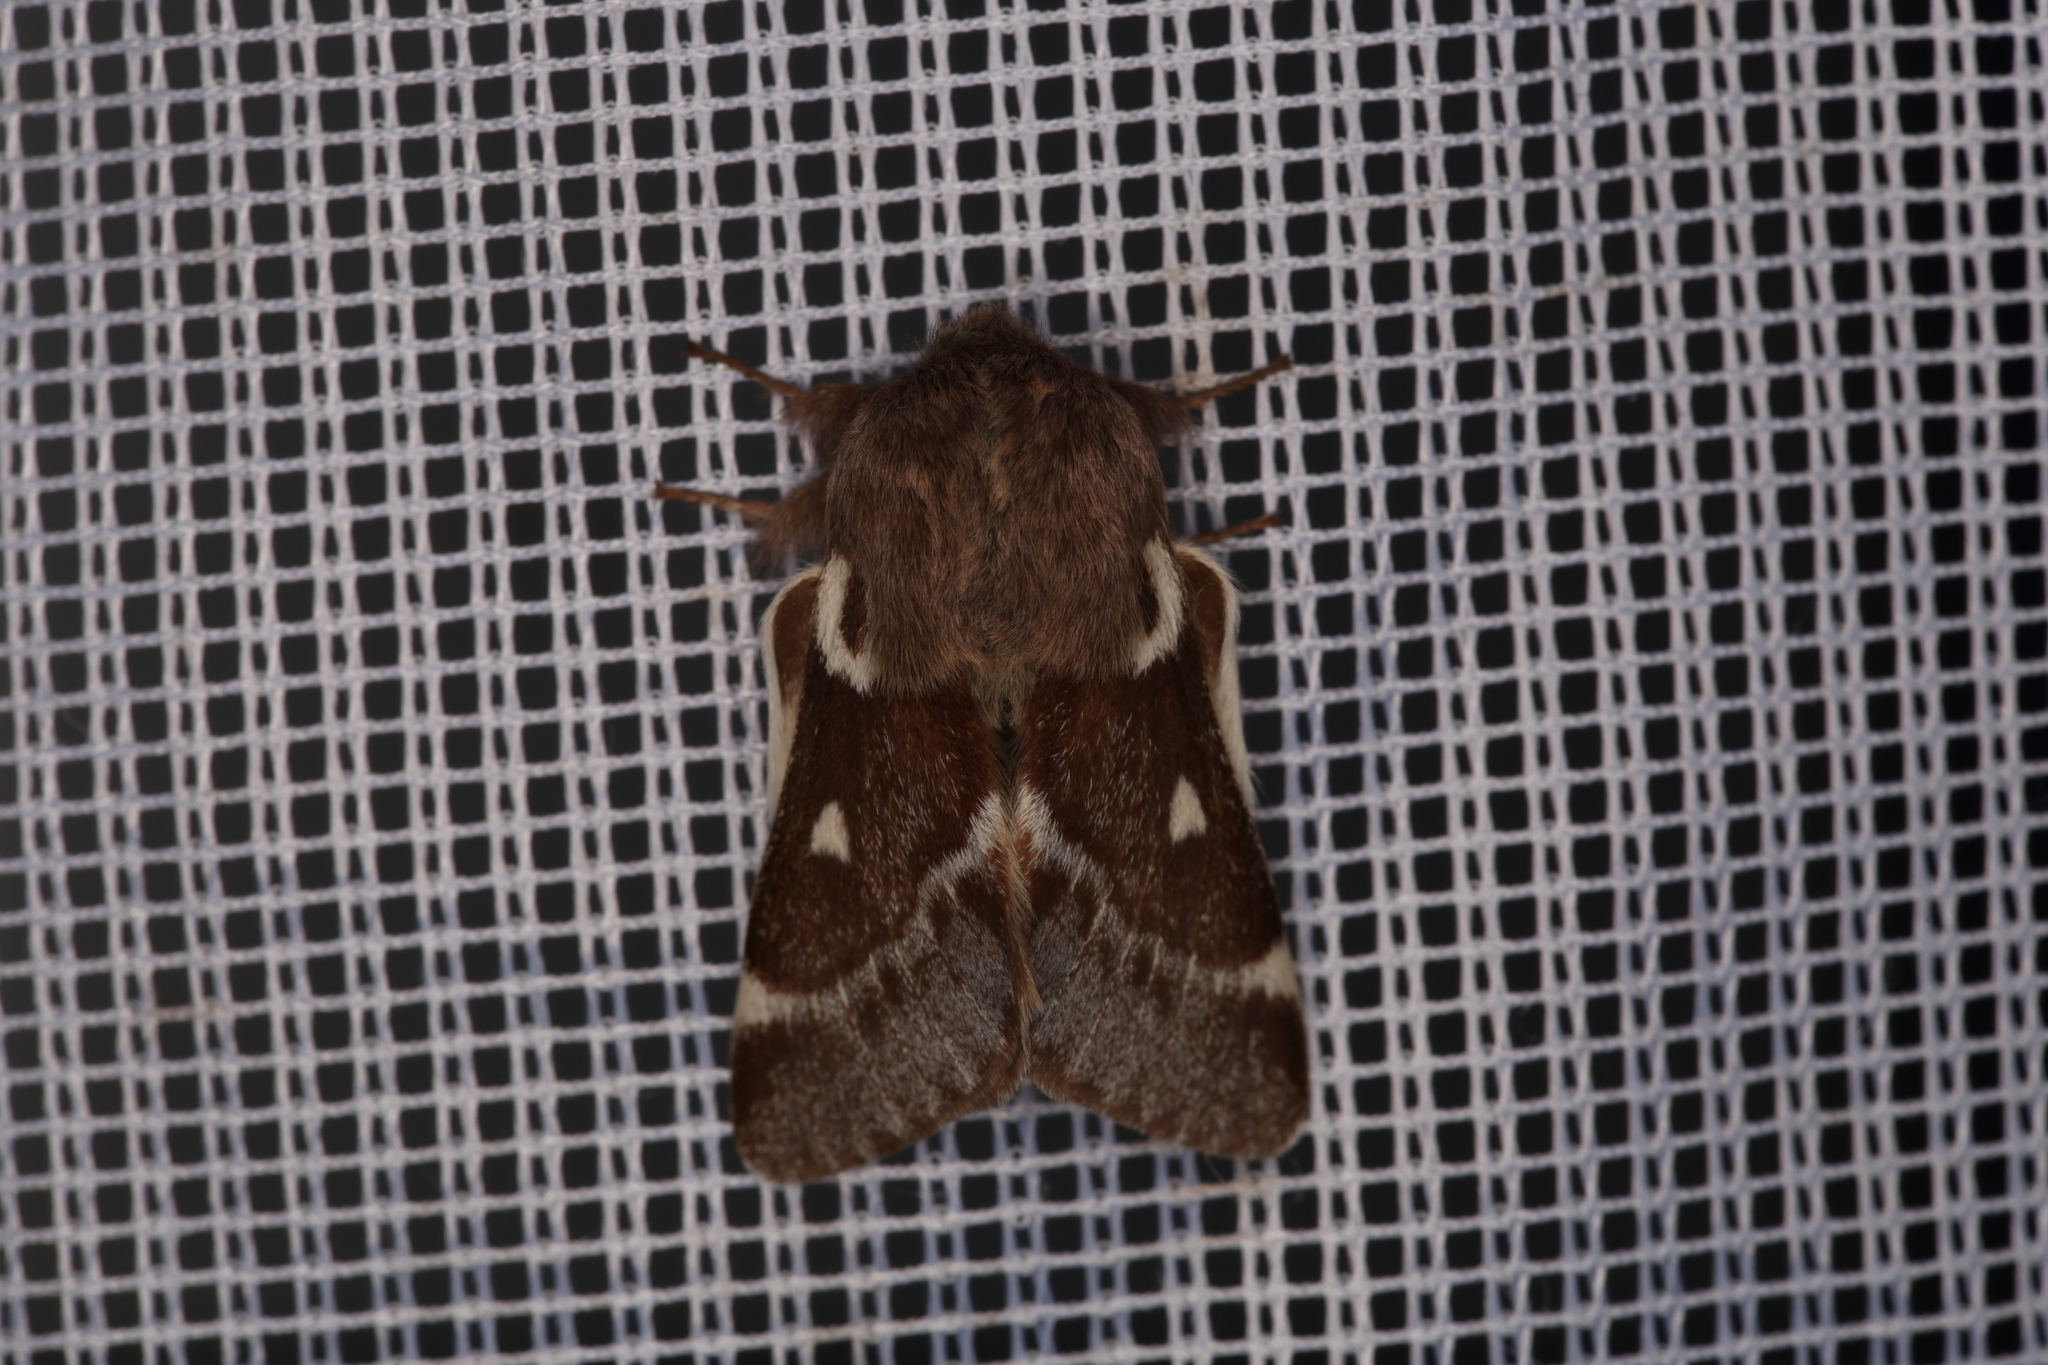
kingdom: Animalia
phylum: Arthropoda
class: Insecta
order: Lepidoptera
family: Lasiocampidae
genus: Eriogaster
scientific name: Eriogaster lanestris
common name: Small eggar
